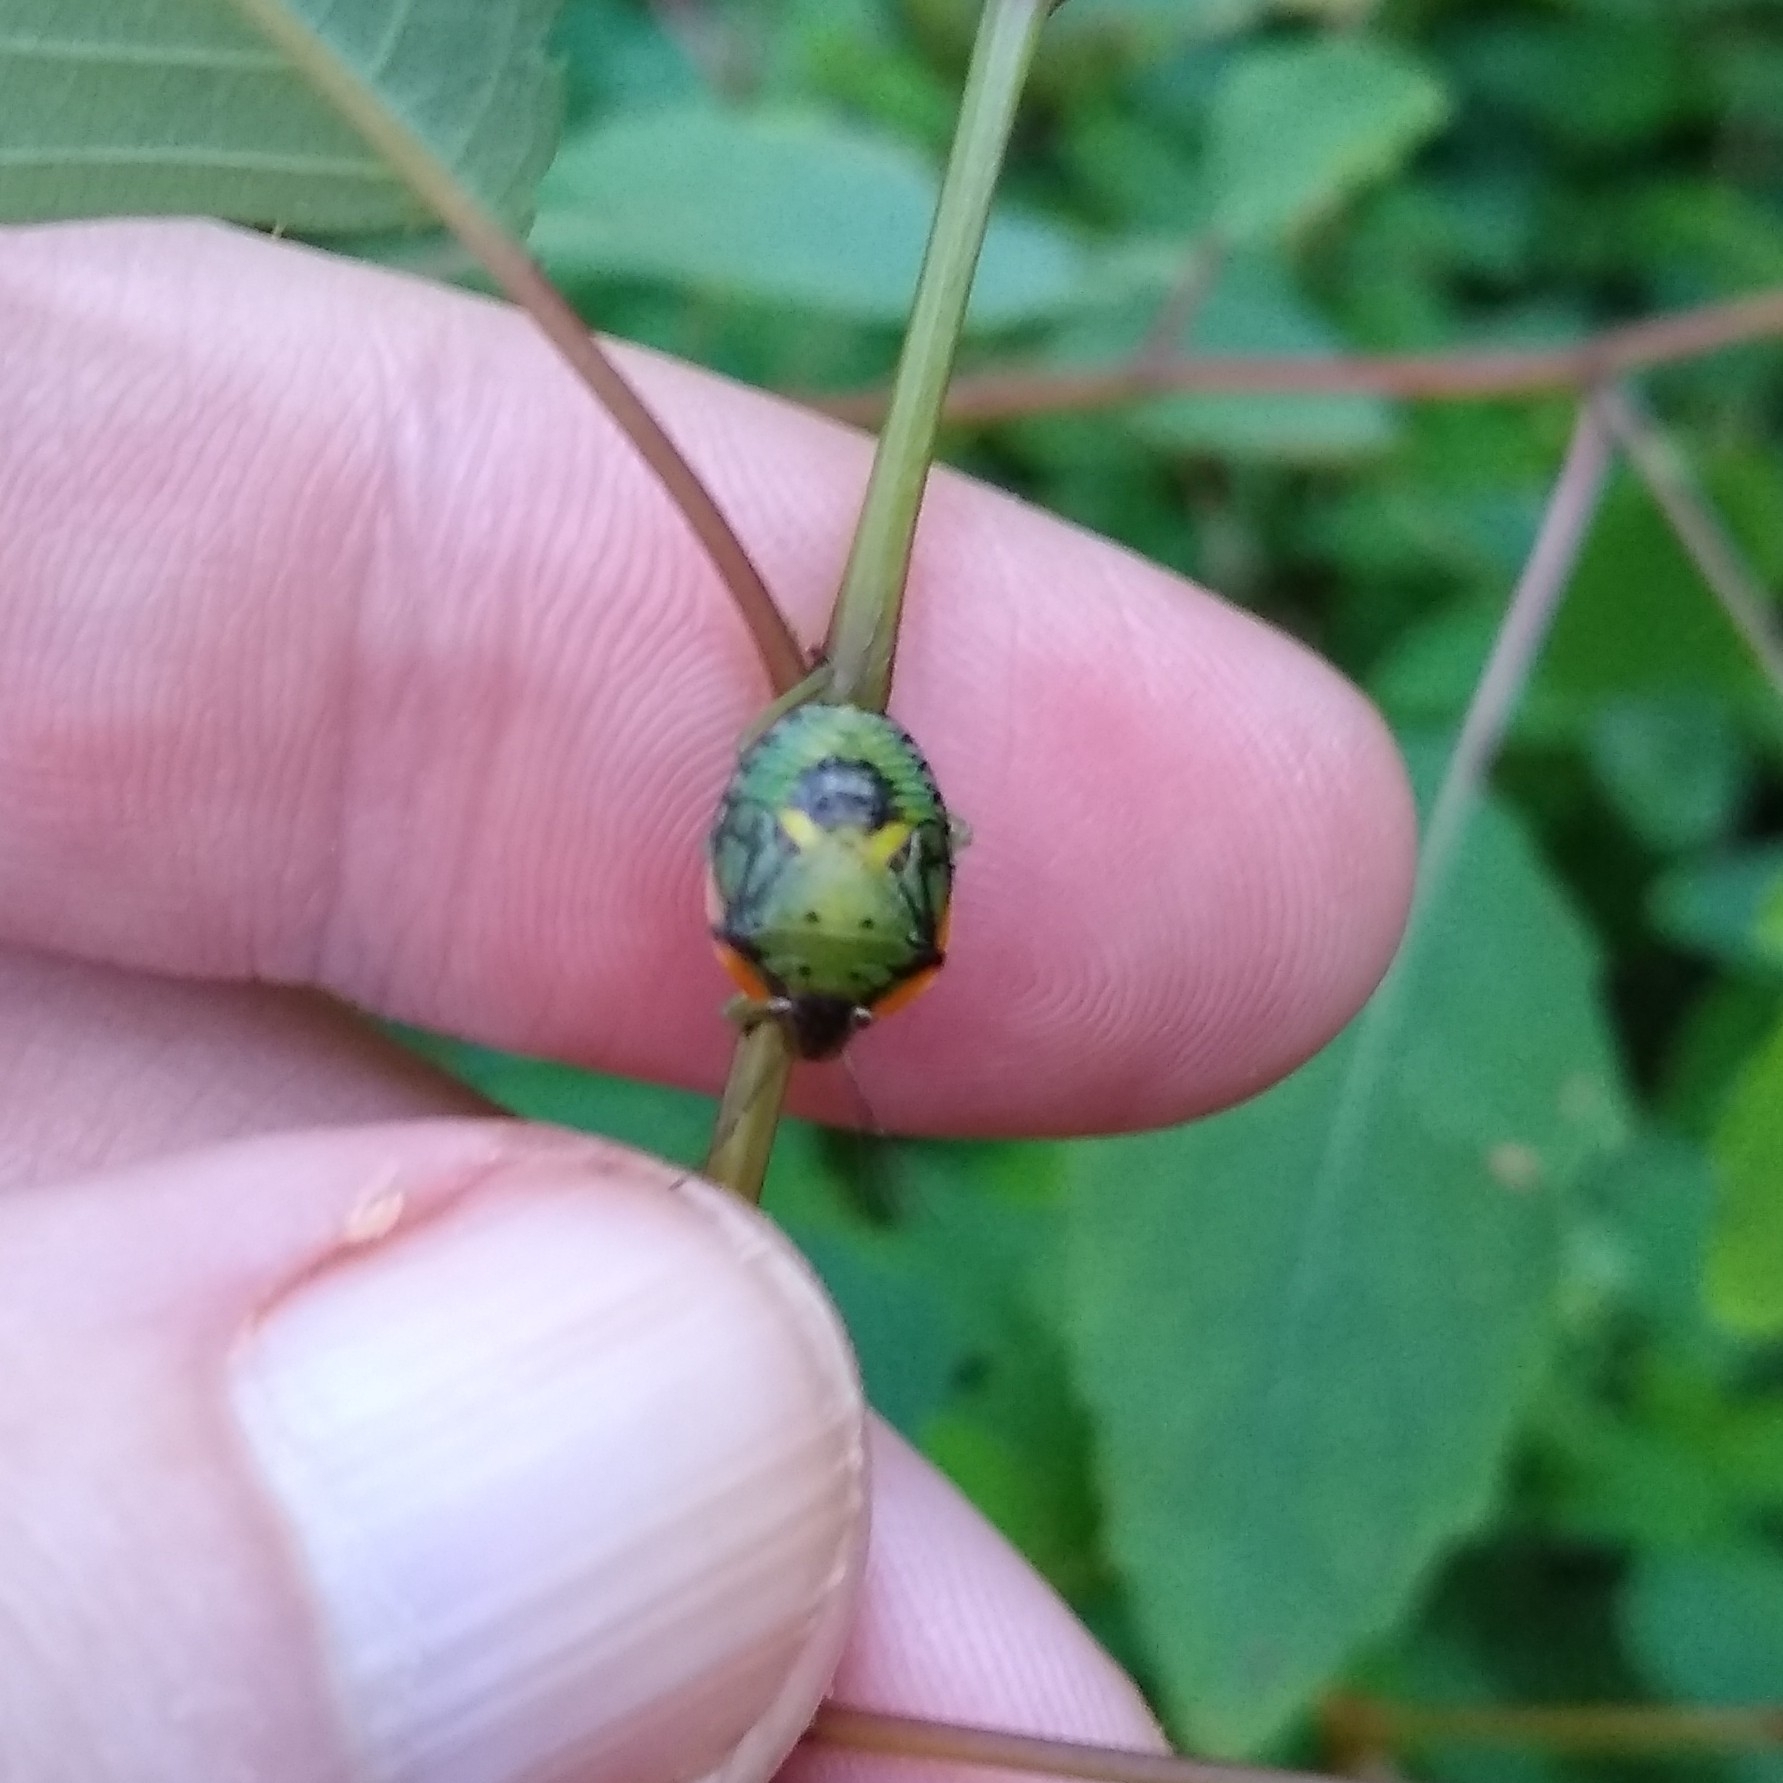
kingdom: Animalia
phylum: Arthropoda
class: Insecta
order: Hemiptera
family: Pentatomidae
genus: Chinavia
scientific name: Chinavia hilaris
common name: Green stink bug
